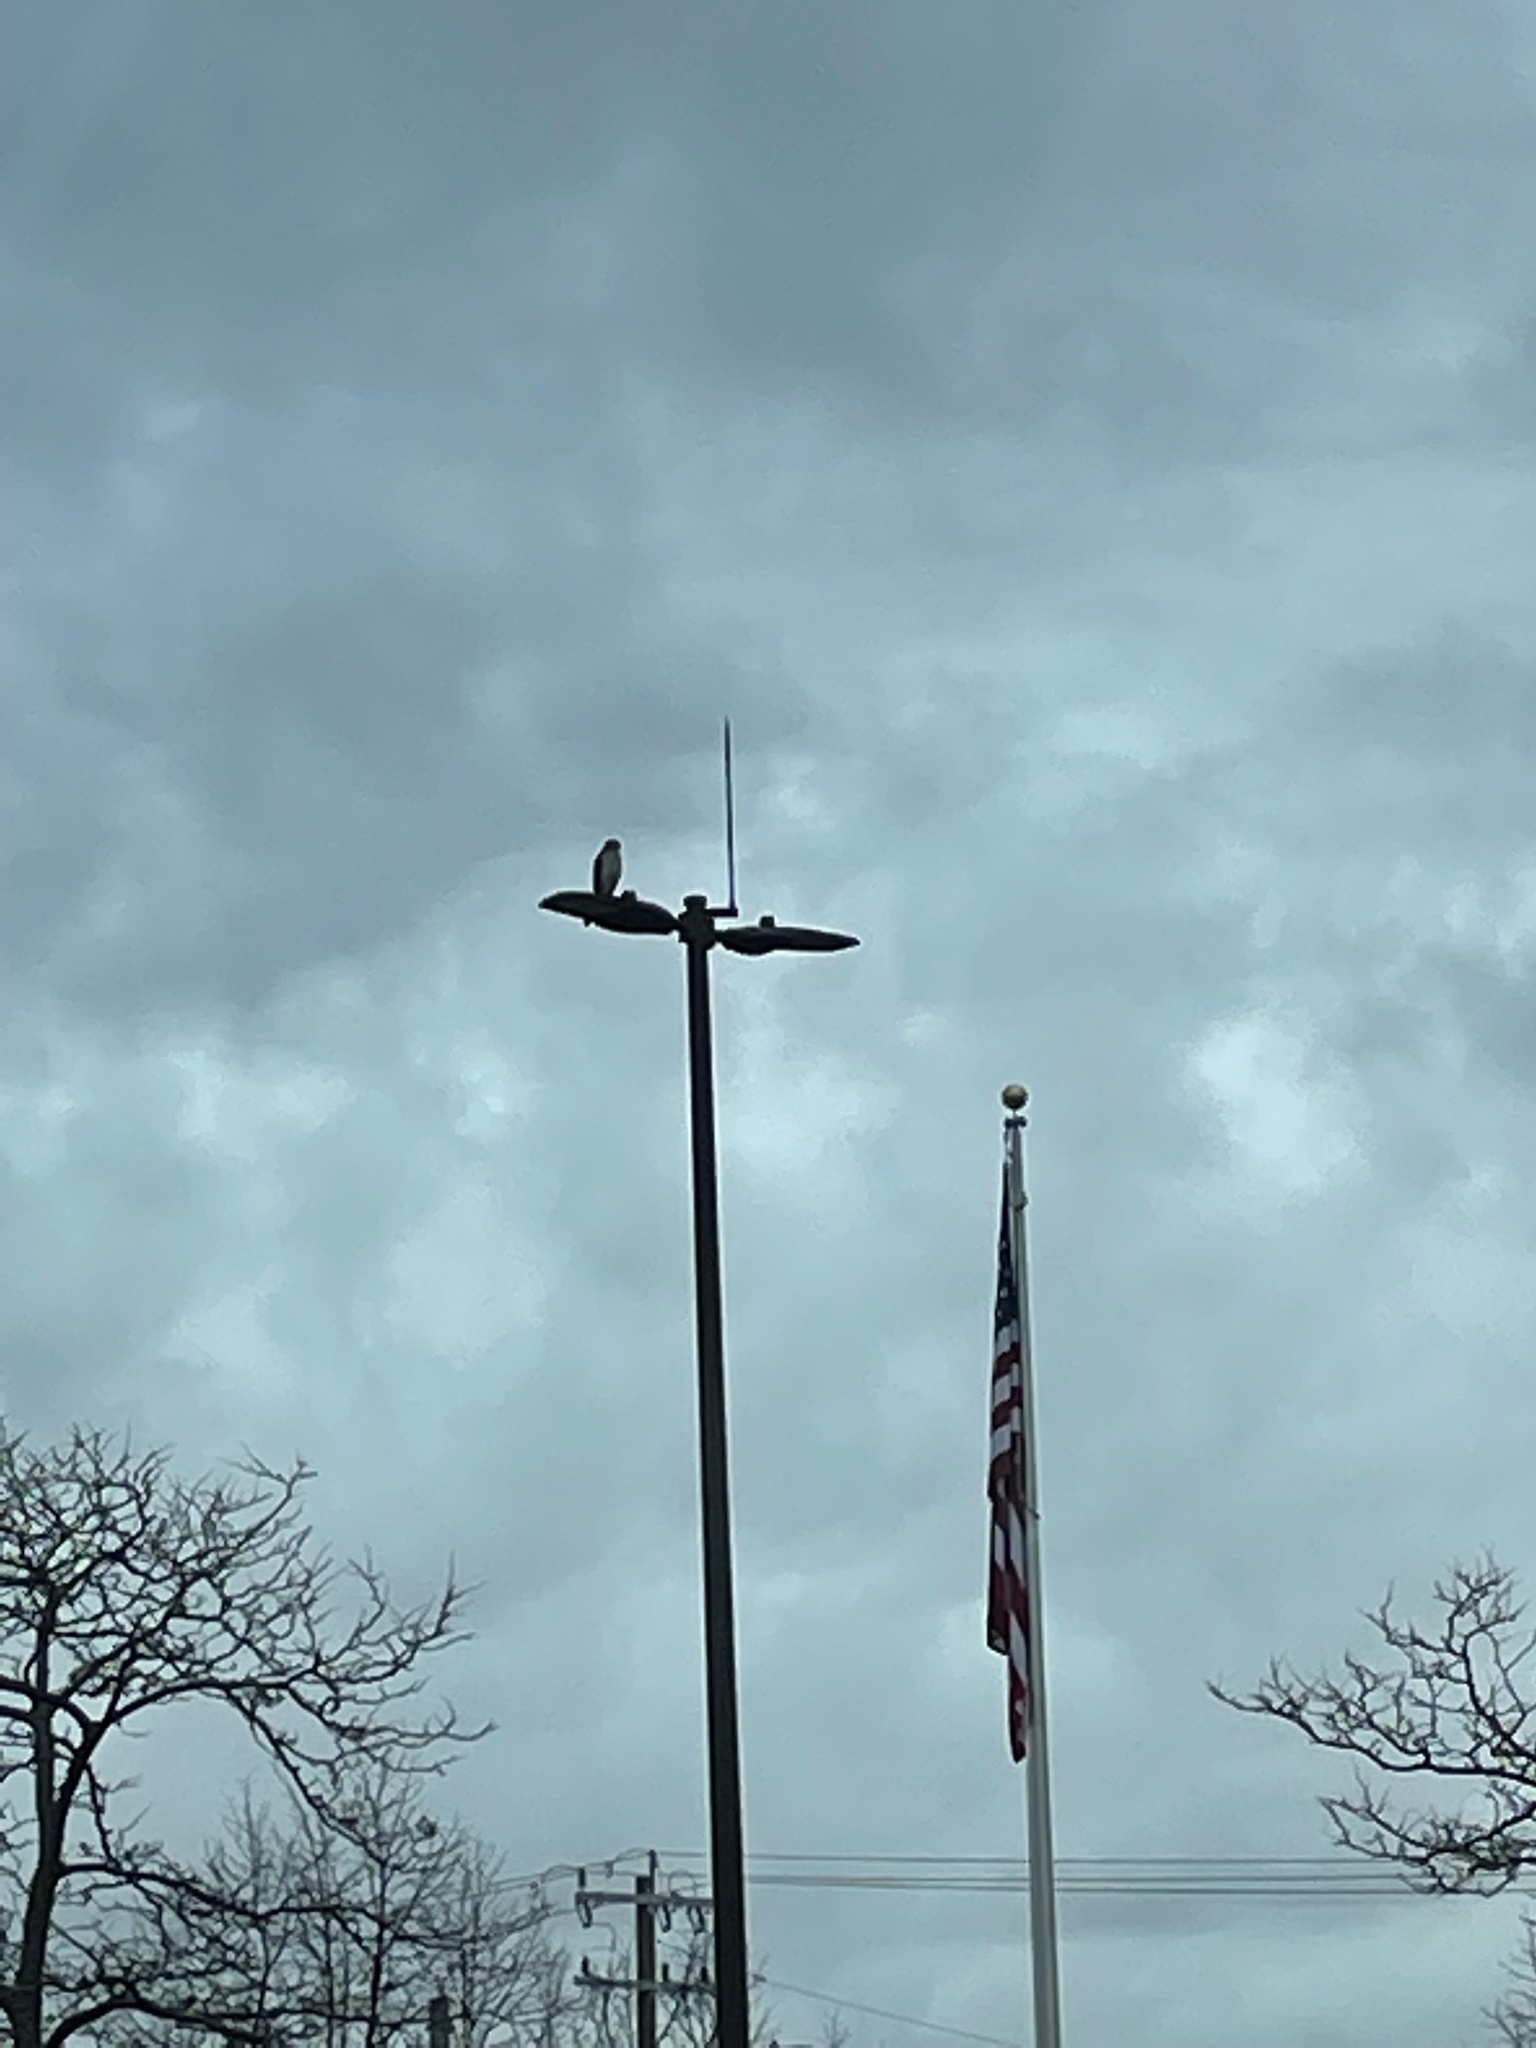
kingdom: Animalia
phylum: Chordata
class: Aves
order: Accipitriformes
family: Accipitridae
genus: Buteo
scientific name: Buteo jamaicensis
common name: Red-tailed hawk
